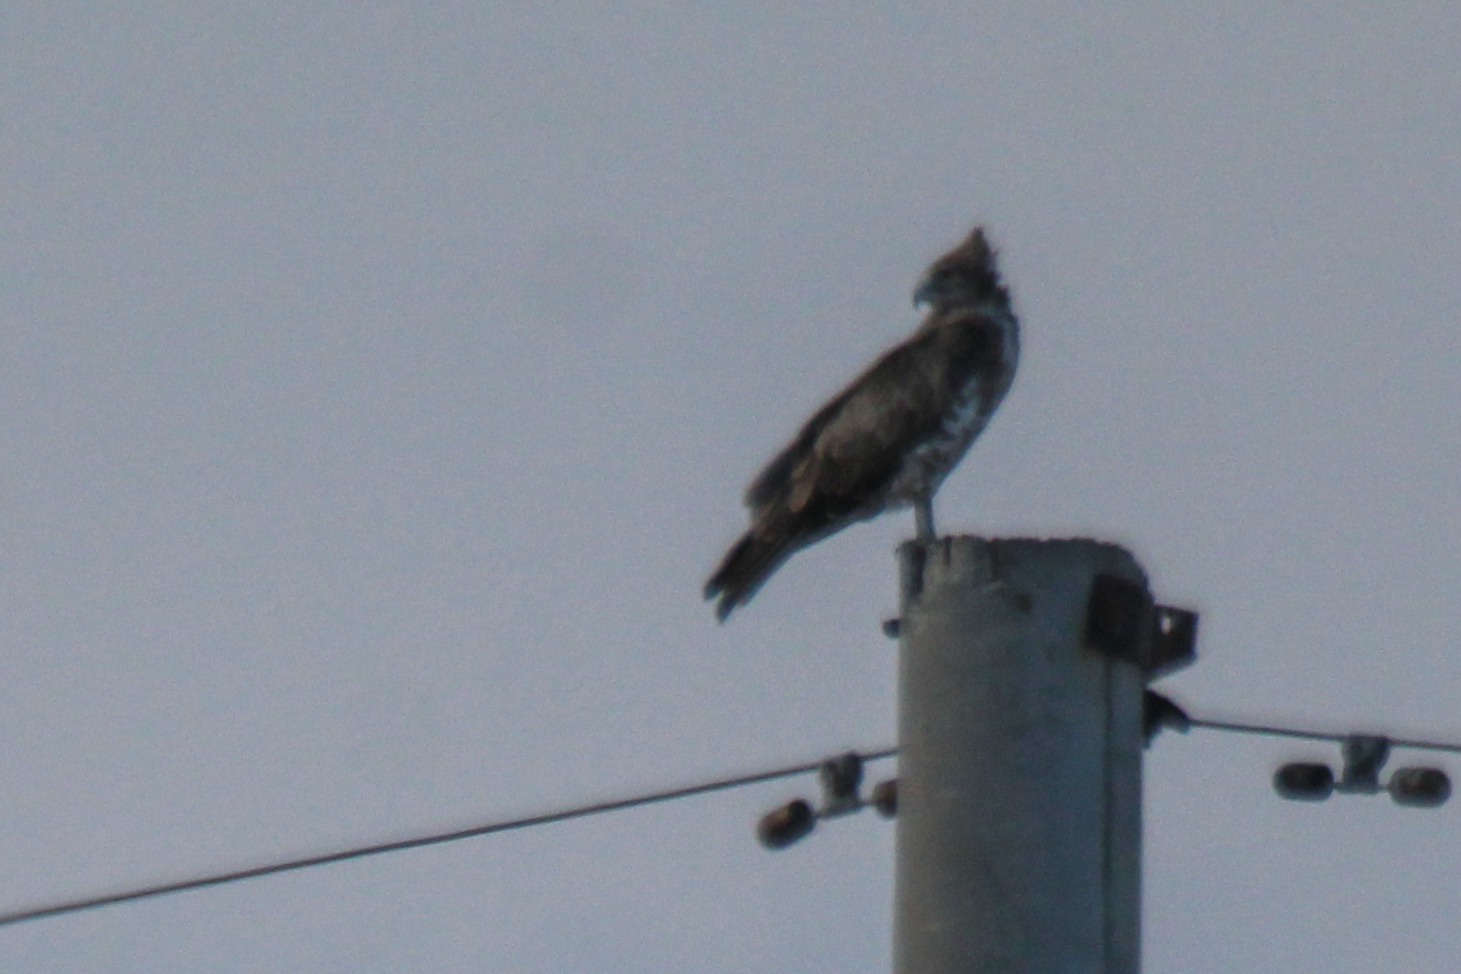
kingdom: Animalia
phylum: Chordata
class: Aves
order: Accipitriformes
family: Accipitridae
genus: Circaetus
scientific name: Circaetus gallicus
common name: Short-toed snake eagle
